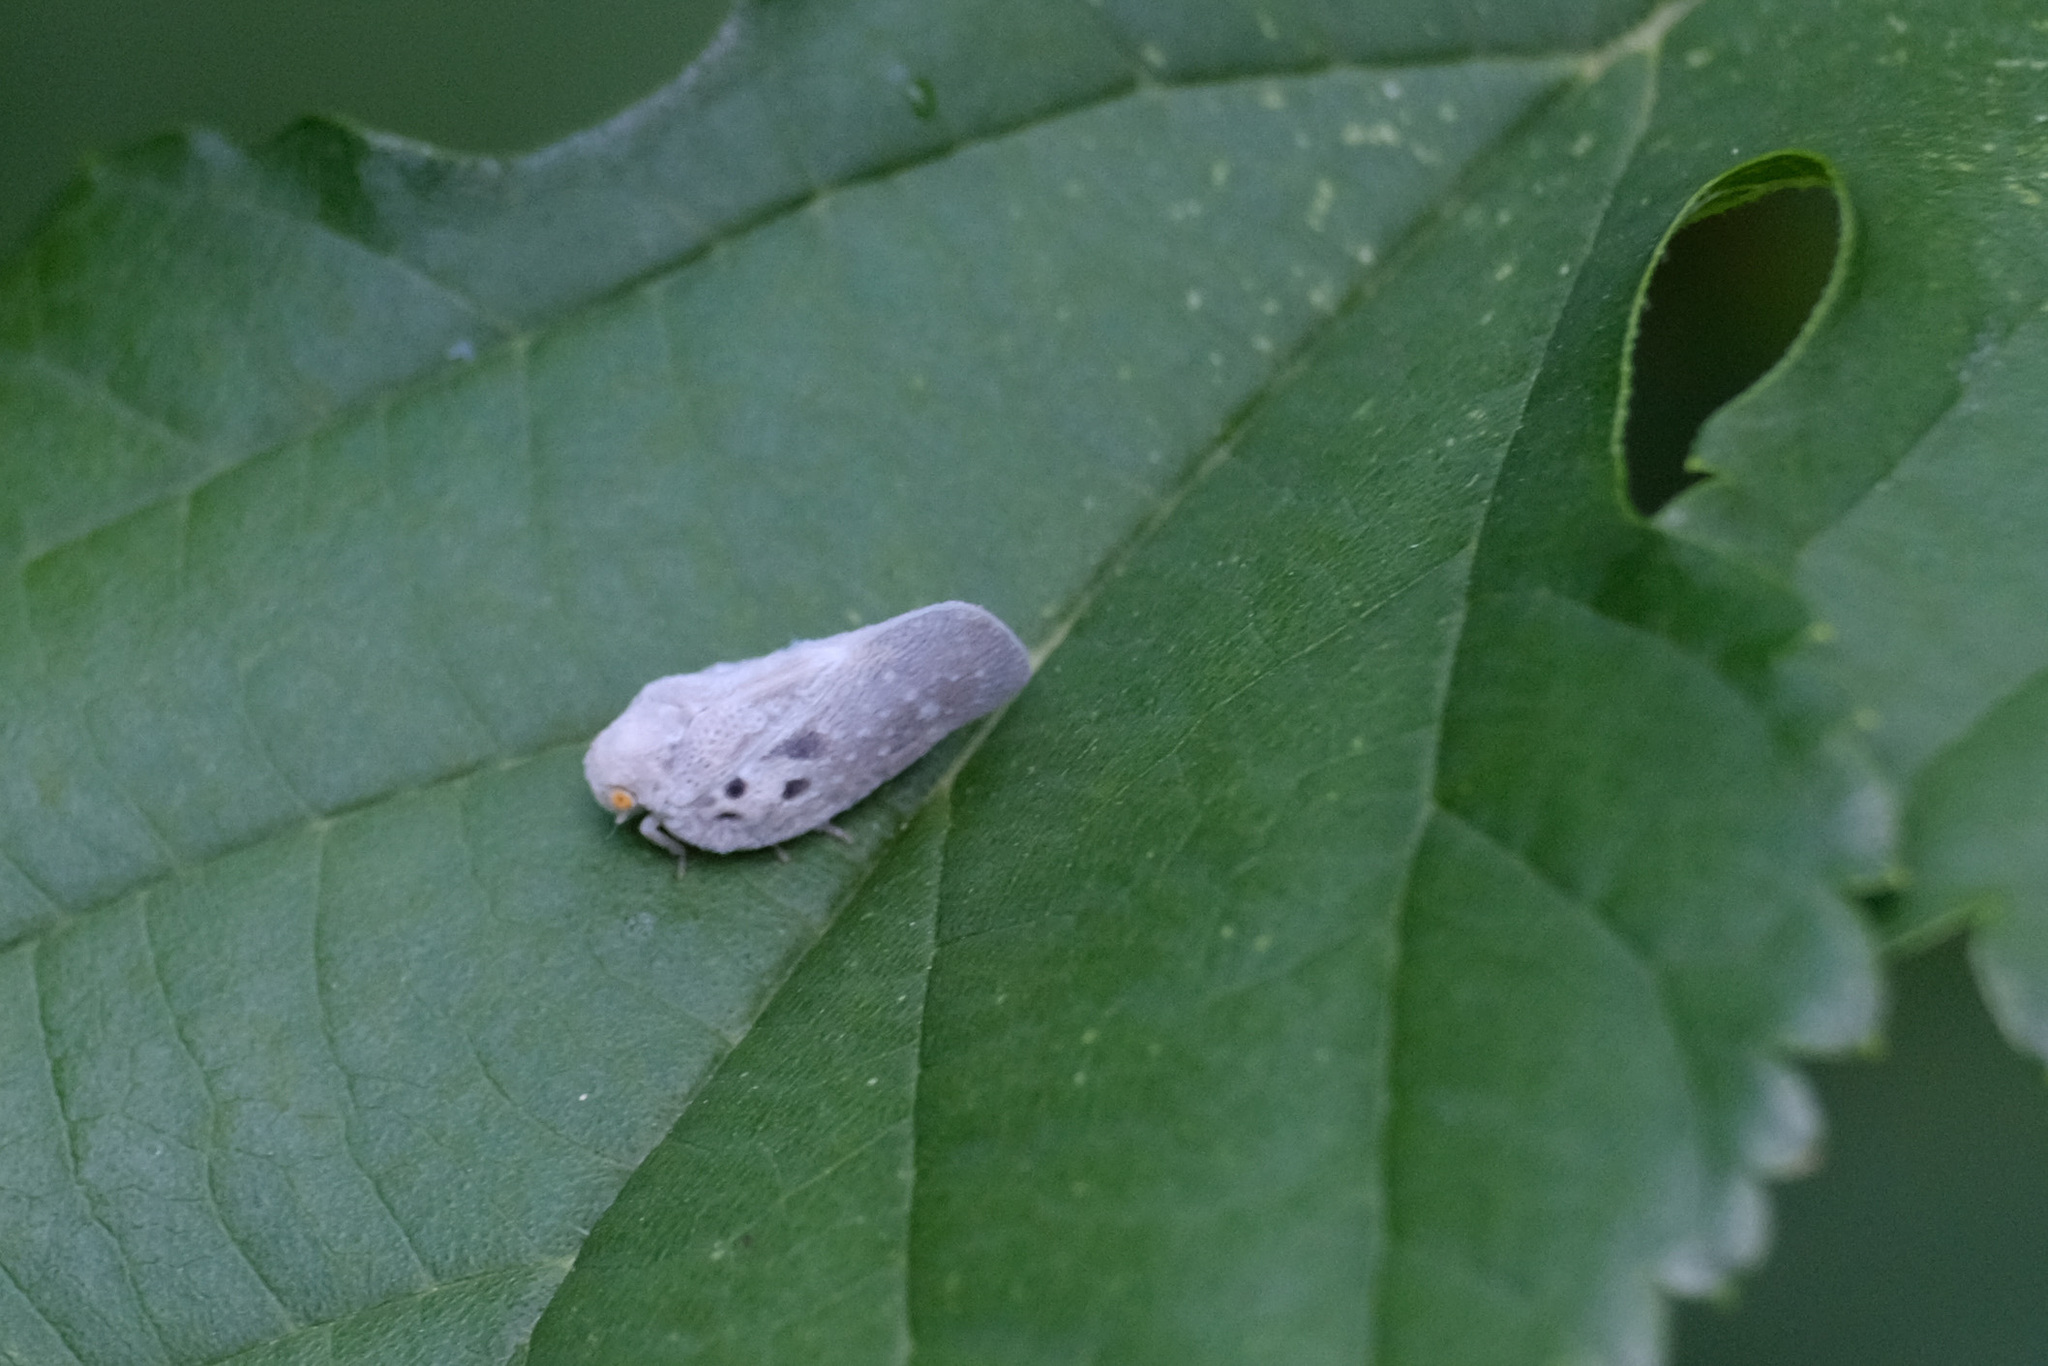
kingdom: Animalia
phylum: Arthropoda
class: Insecta
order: Hemiptera
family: Flatidae
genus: Metcalfa
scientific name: Metcalfa pruinosa
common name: Citrus flatid planthopper
